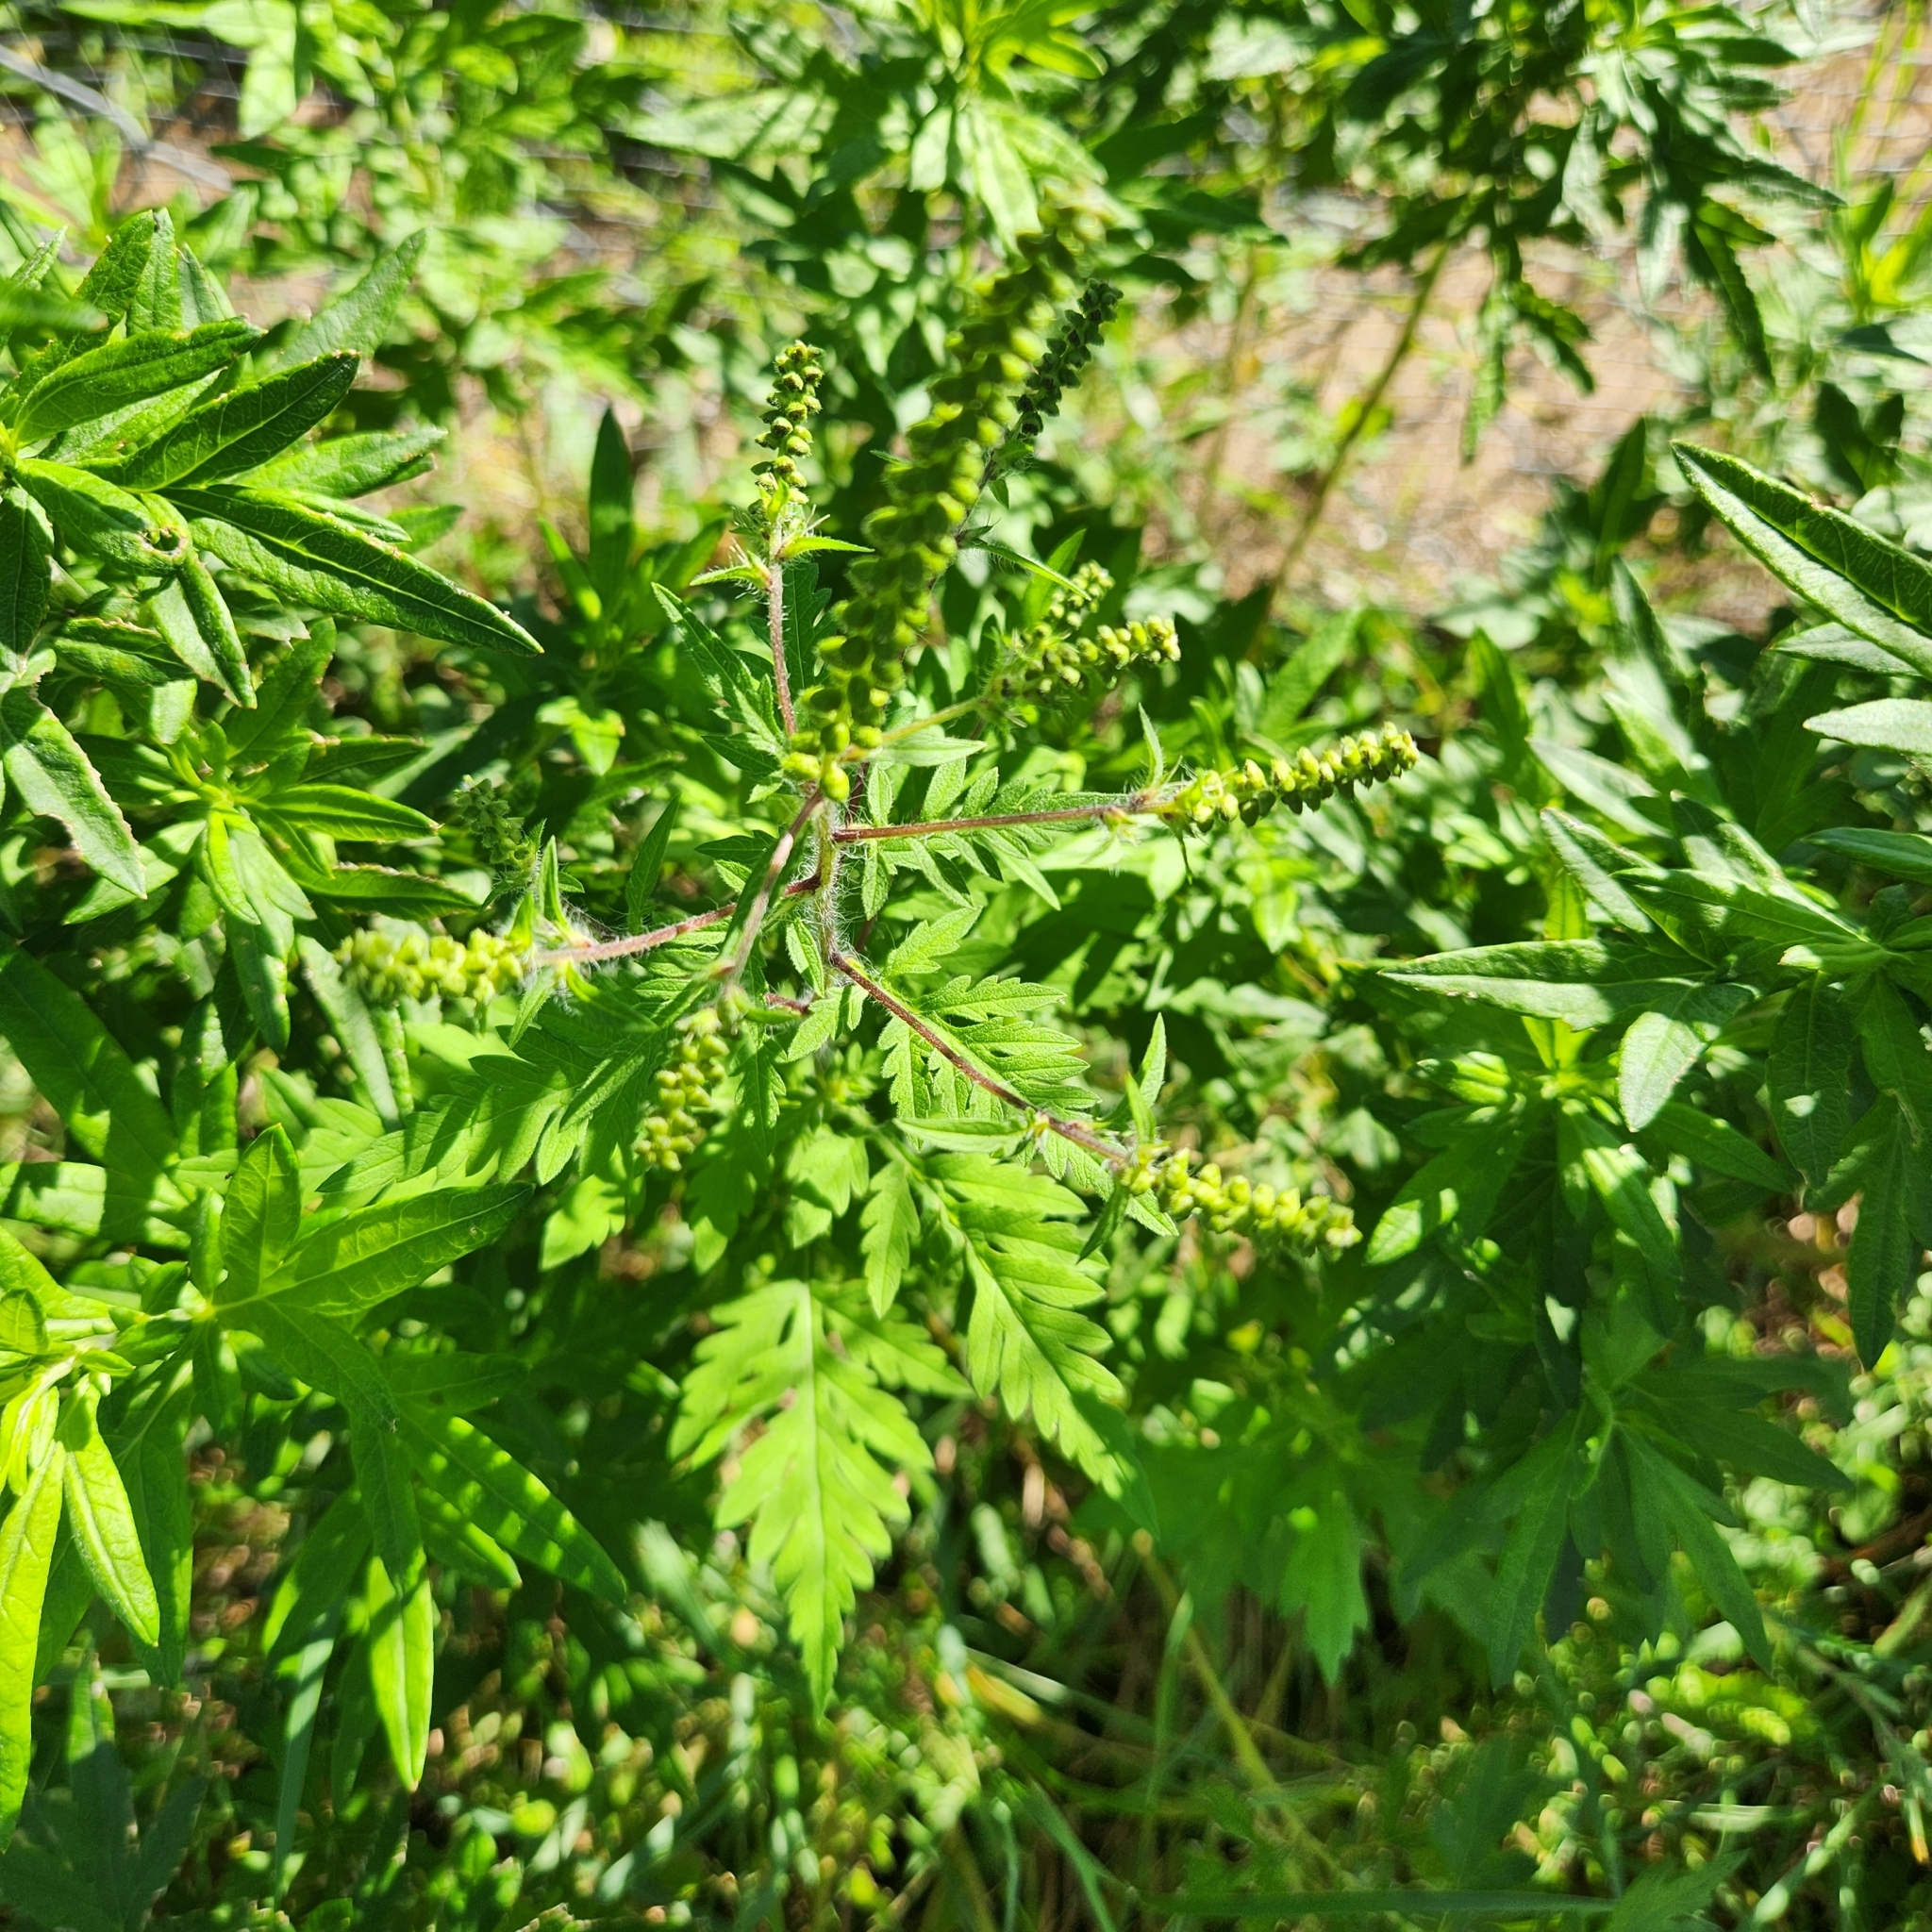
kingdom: Plantae
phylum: Tracheophyta
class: Magnoliopsida
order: Asterales
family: Asteraceae
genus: Ambrosia
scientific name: Ambrosia artemisiifolia
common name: Annual ragweed
